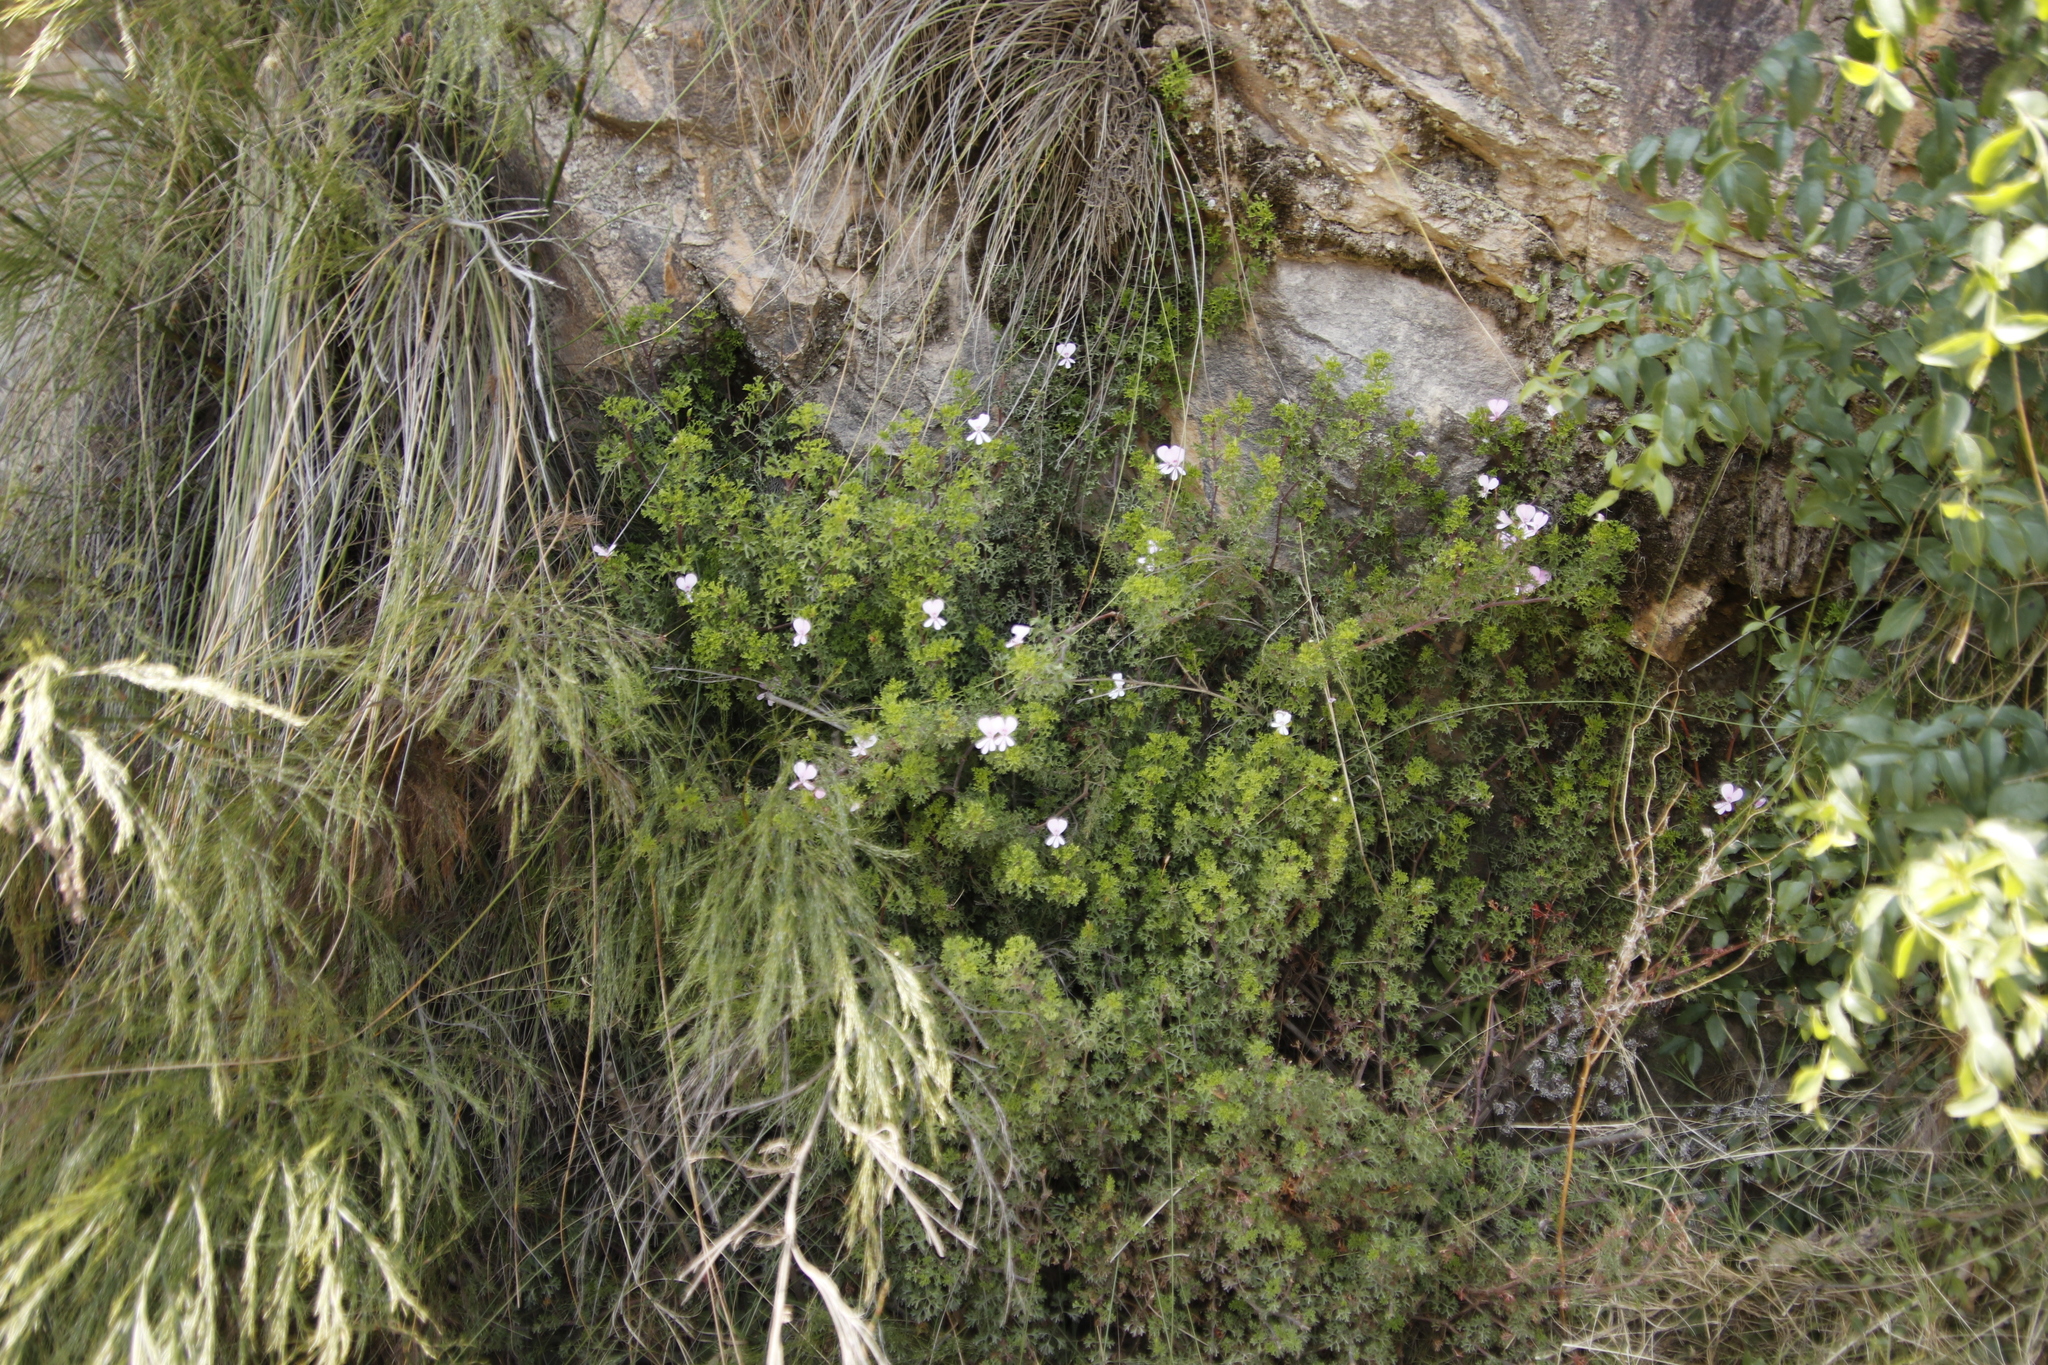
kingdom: Plantae
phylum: Tracheophyta
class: Magnoliopsida
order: Geraniales
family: Geraniaceae
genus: Pelargonium
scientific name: Pelargonium fruticosum
